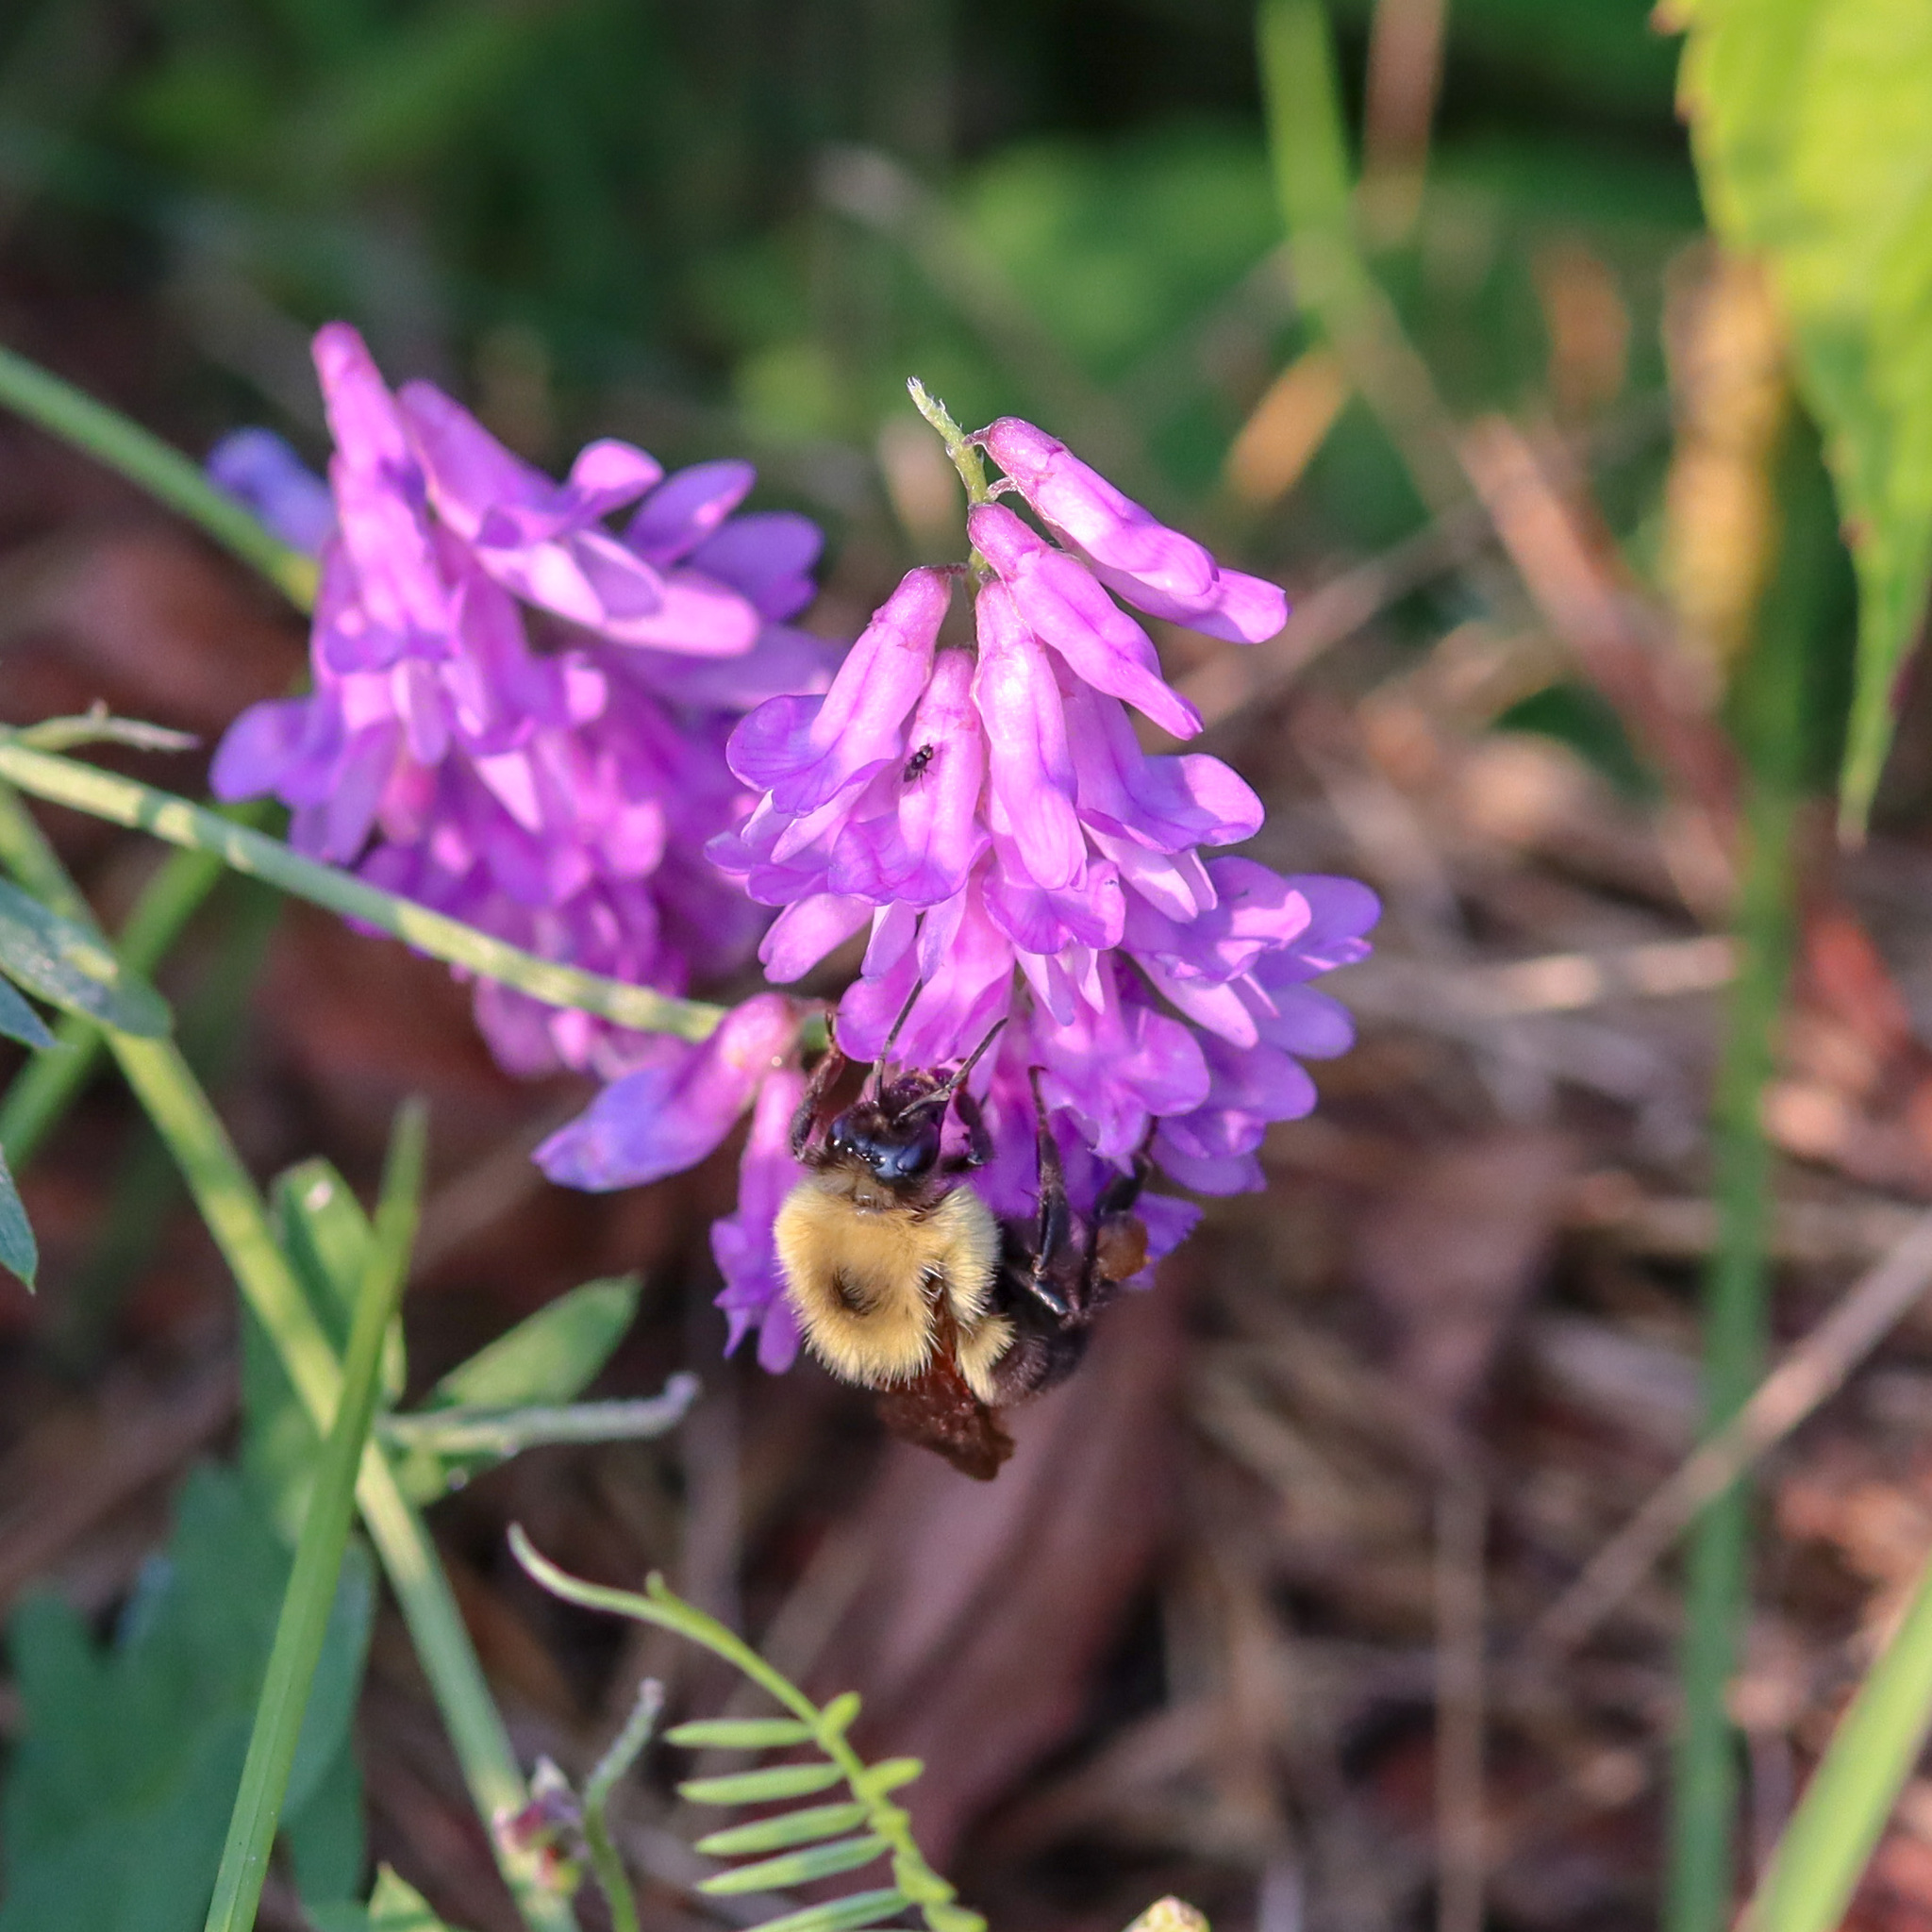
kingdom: Animalia
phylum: Arthropoda
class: Insecta
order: Hymenoptera
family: Apidae
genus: Bombus
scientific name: Bombus bimaculatus
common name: Two-spotted bumble bee
